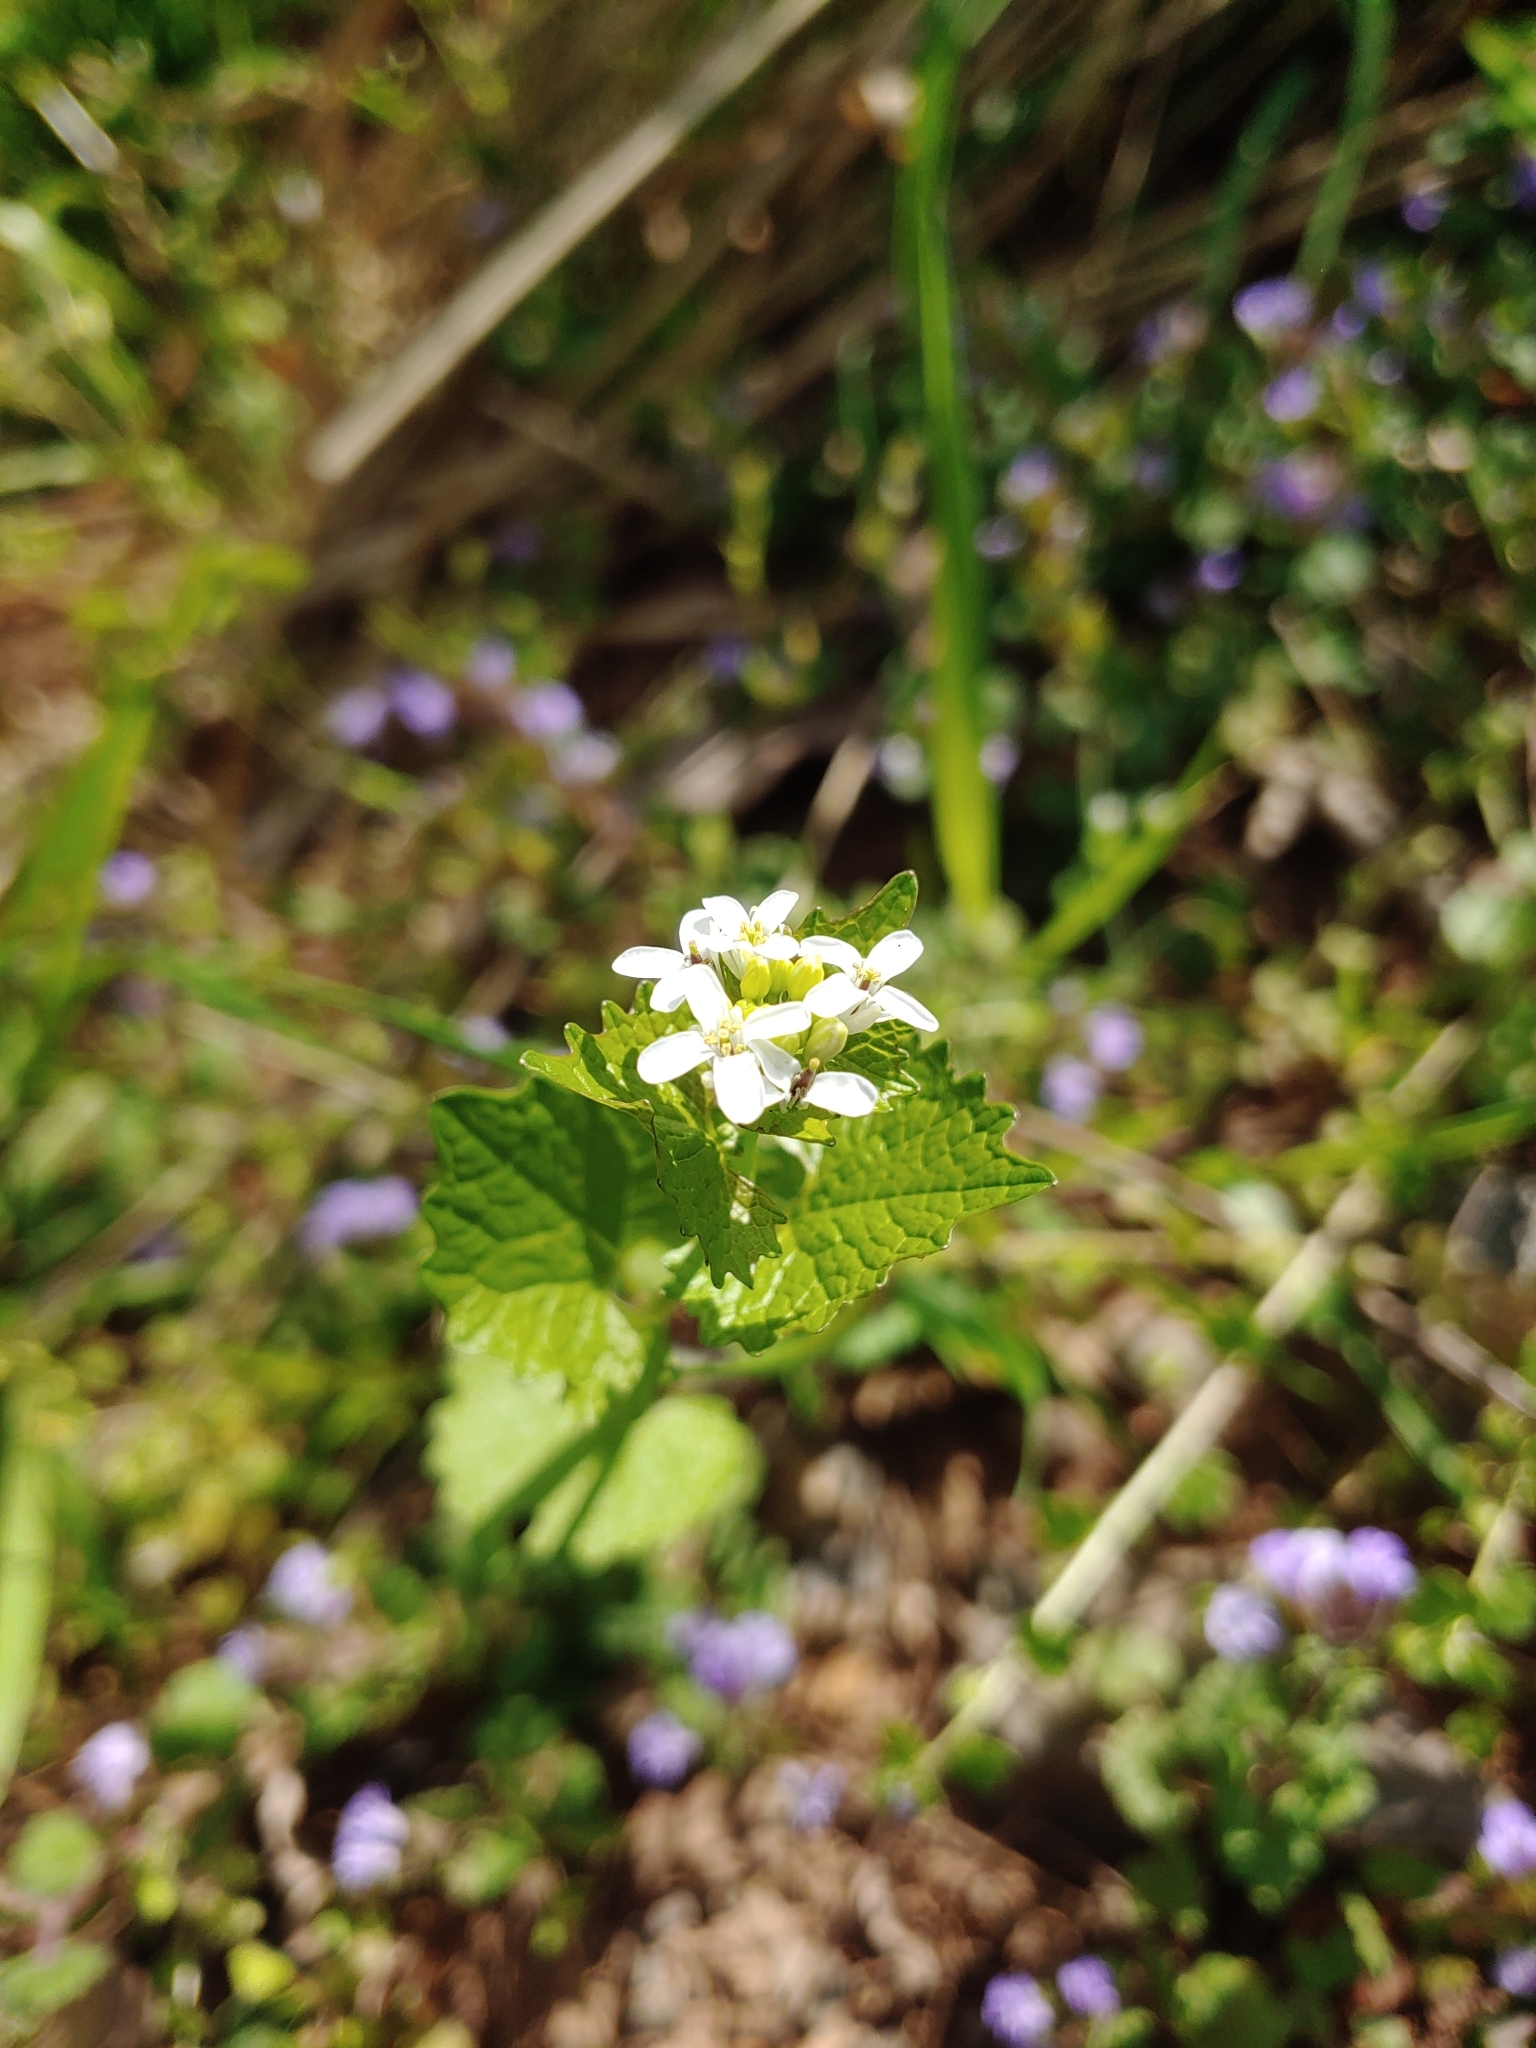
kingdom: Plantae
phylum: Tracheophyta
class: Magnoliopsida
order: Brassicales
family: Brassicaceae
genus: Alliaria
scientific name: Alliaria petiolata
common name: Garlic mustard
